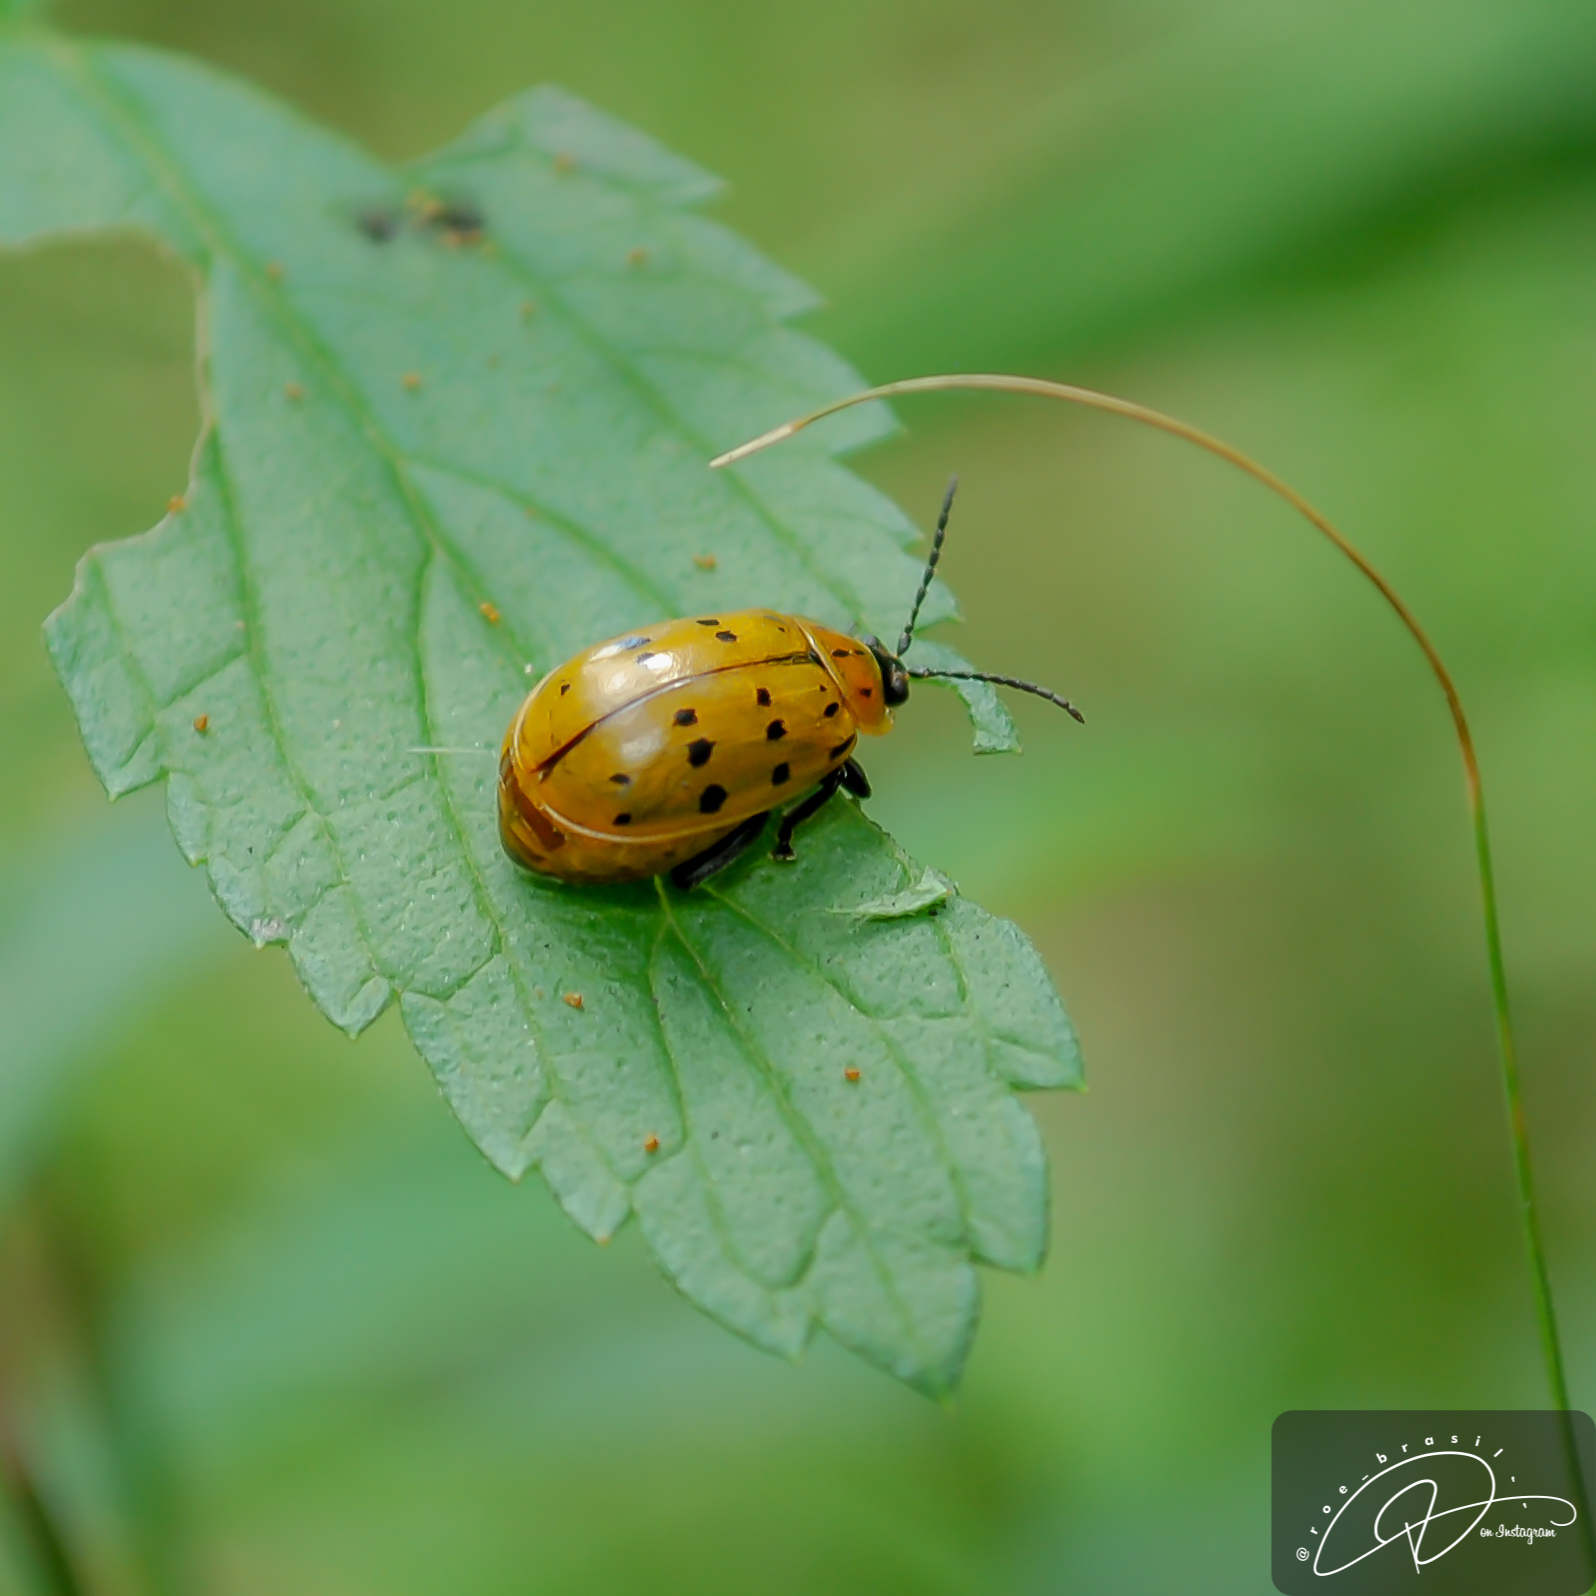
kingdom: Animalia
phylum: Arthropoda
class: Insecta
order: Coleoptera
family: Chrysomelidae
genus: Alagoasa
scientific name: Alagoasa
